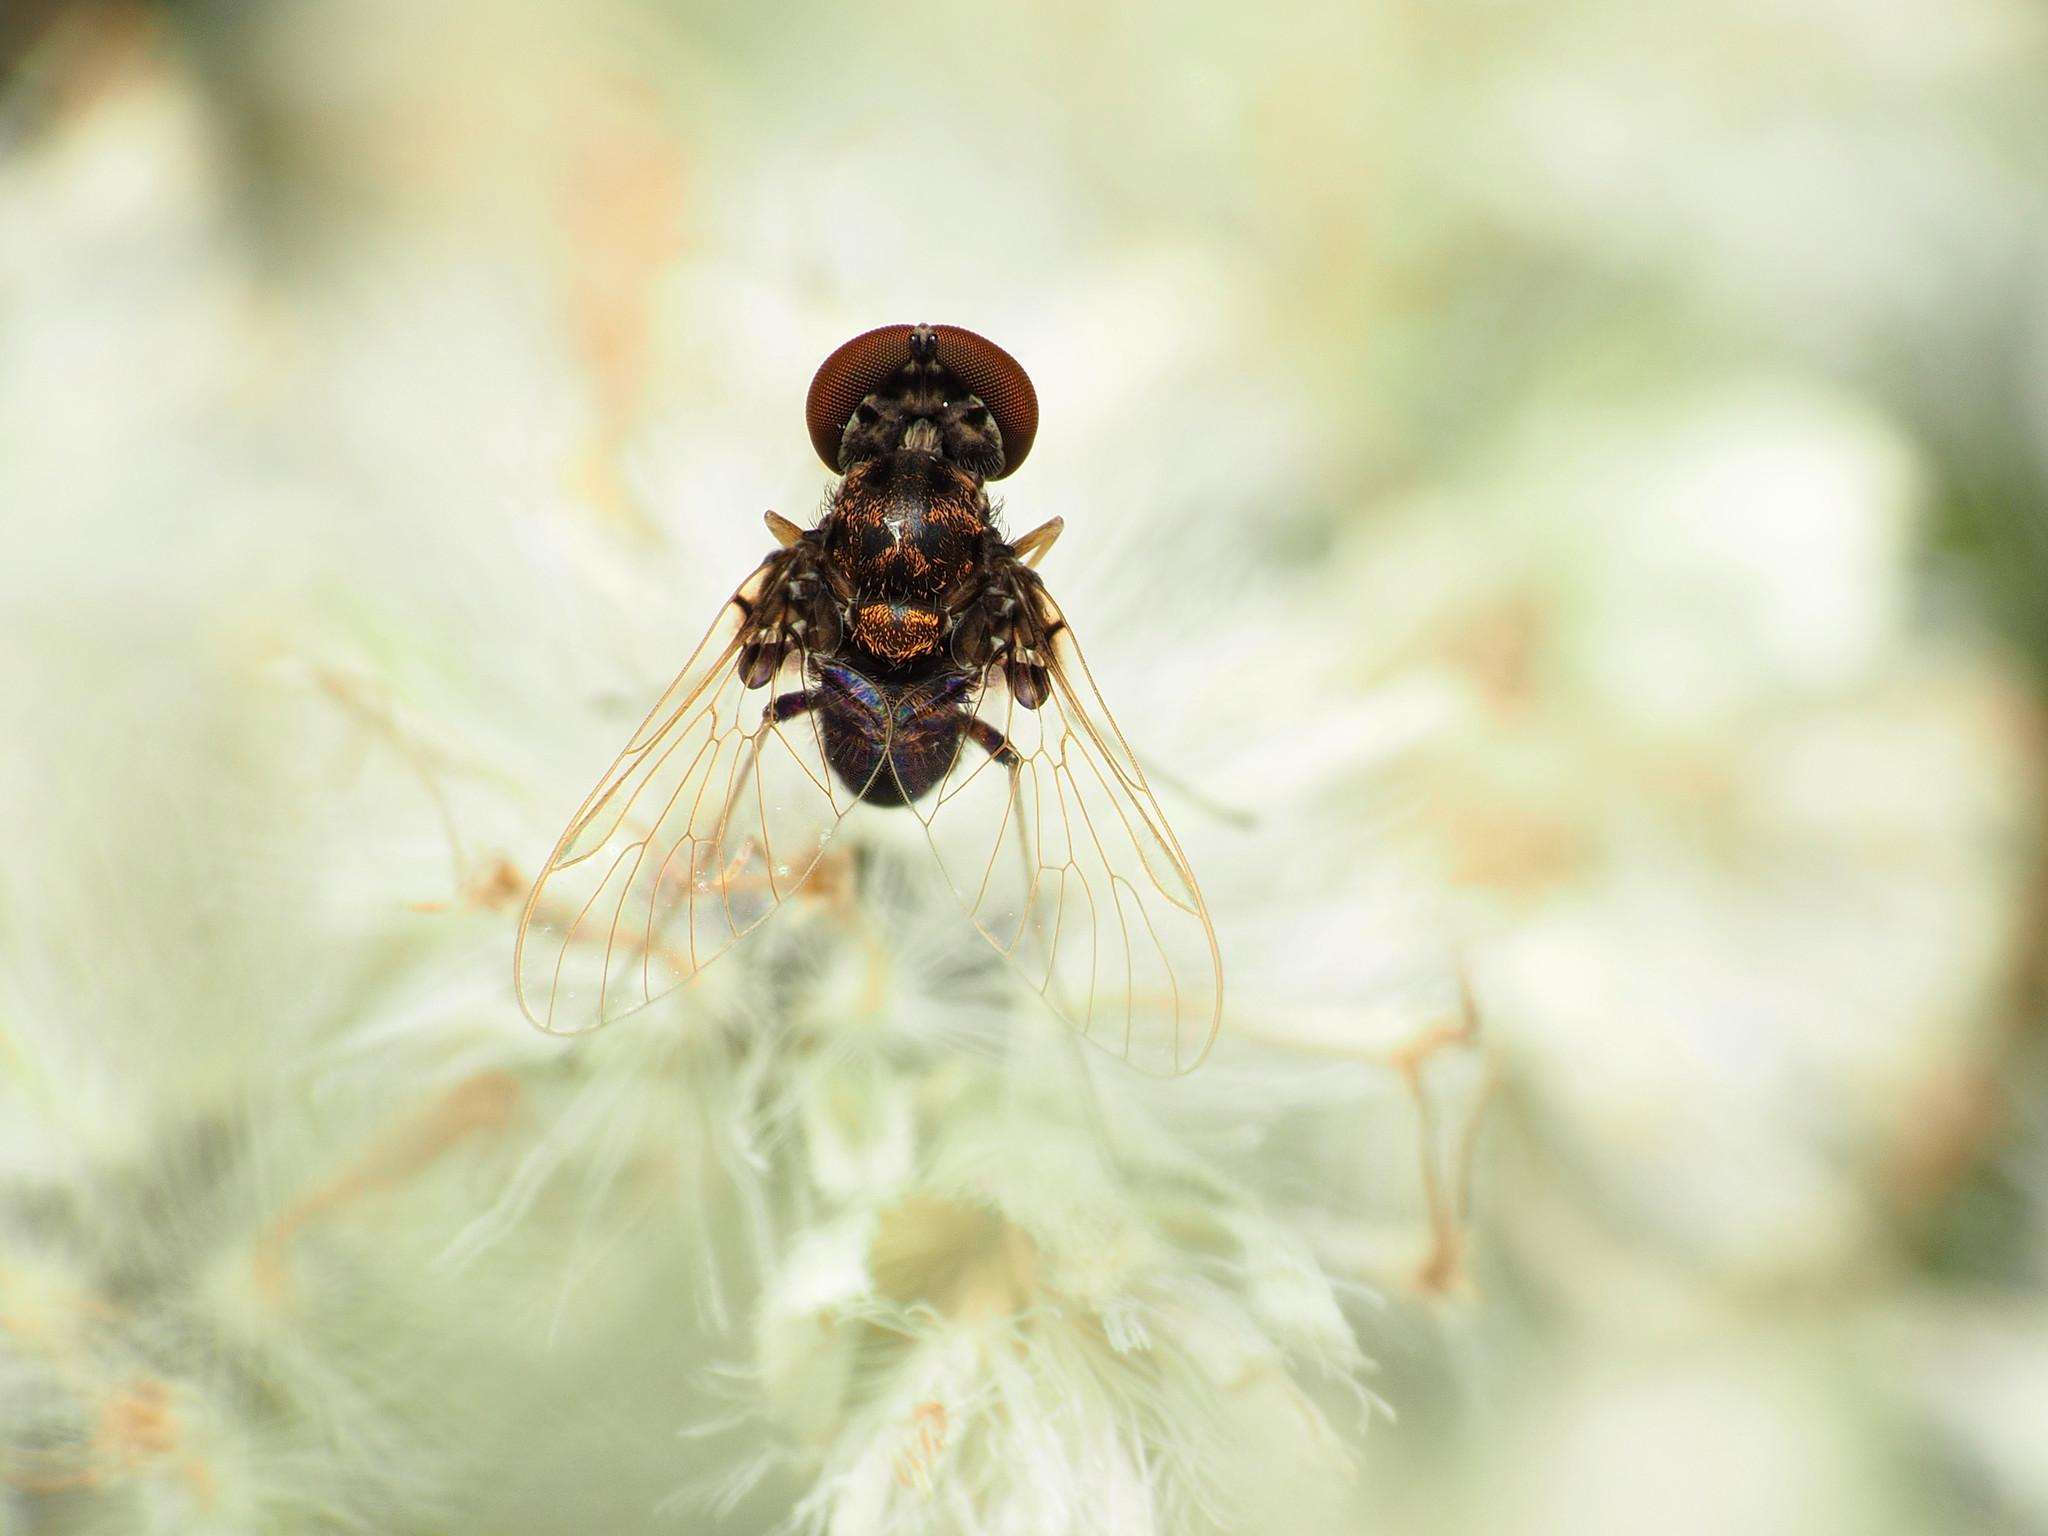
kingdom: Animalia
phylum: Arthropoda
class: Insecta
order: Diptera
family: Rhagionidae
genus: Chrysopilus
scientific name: Chrysopilus basilaris
